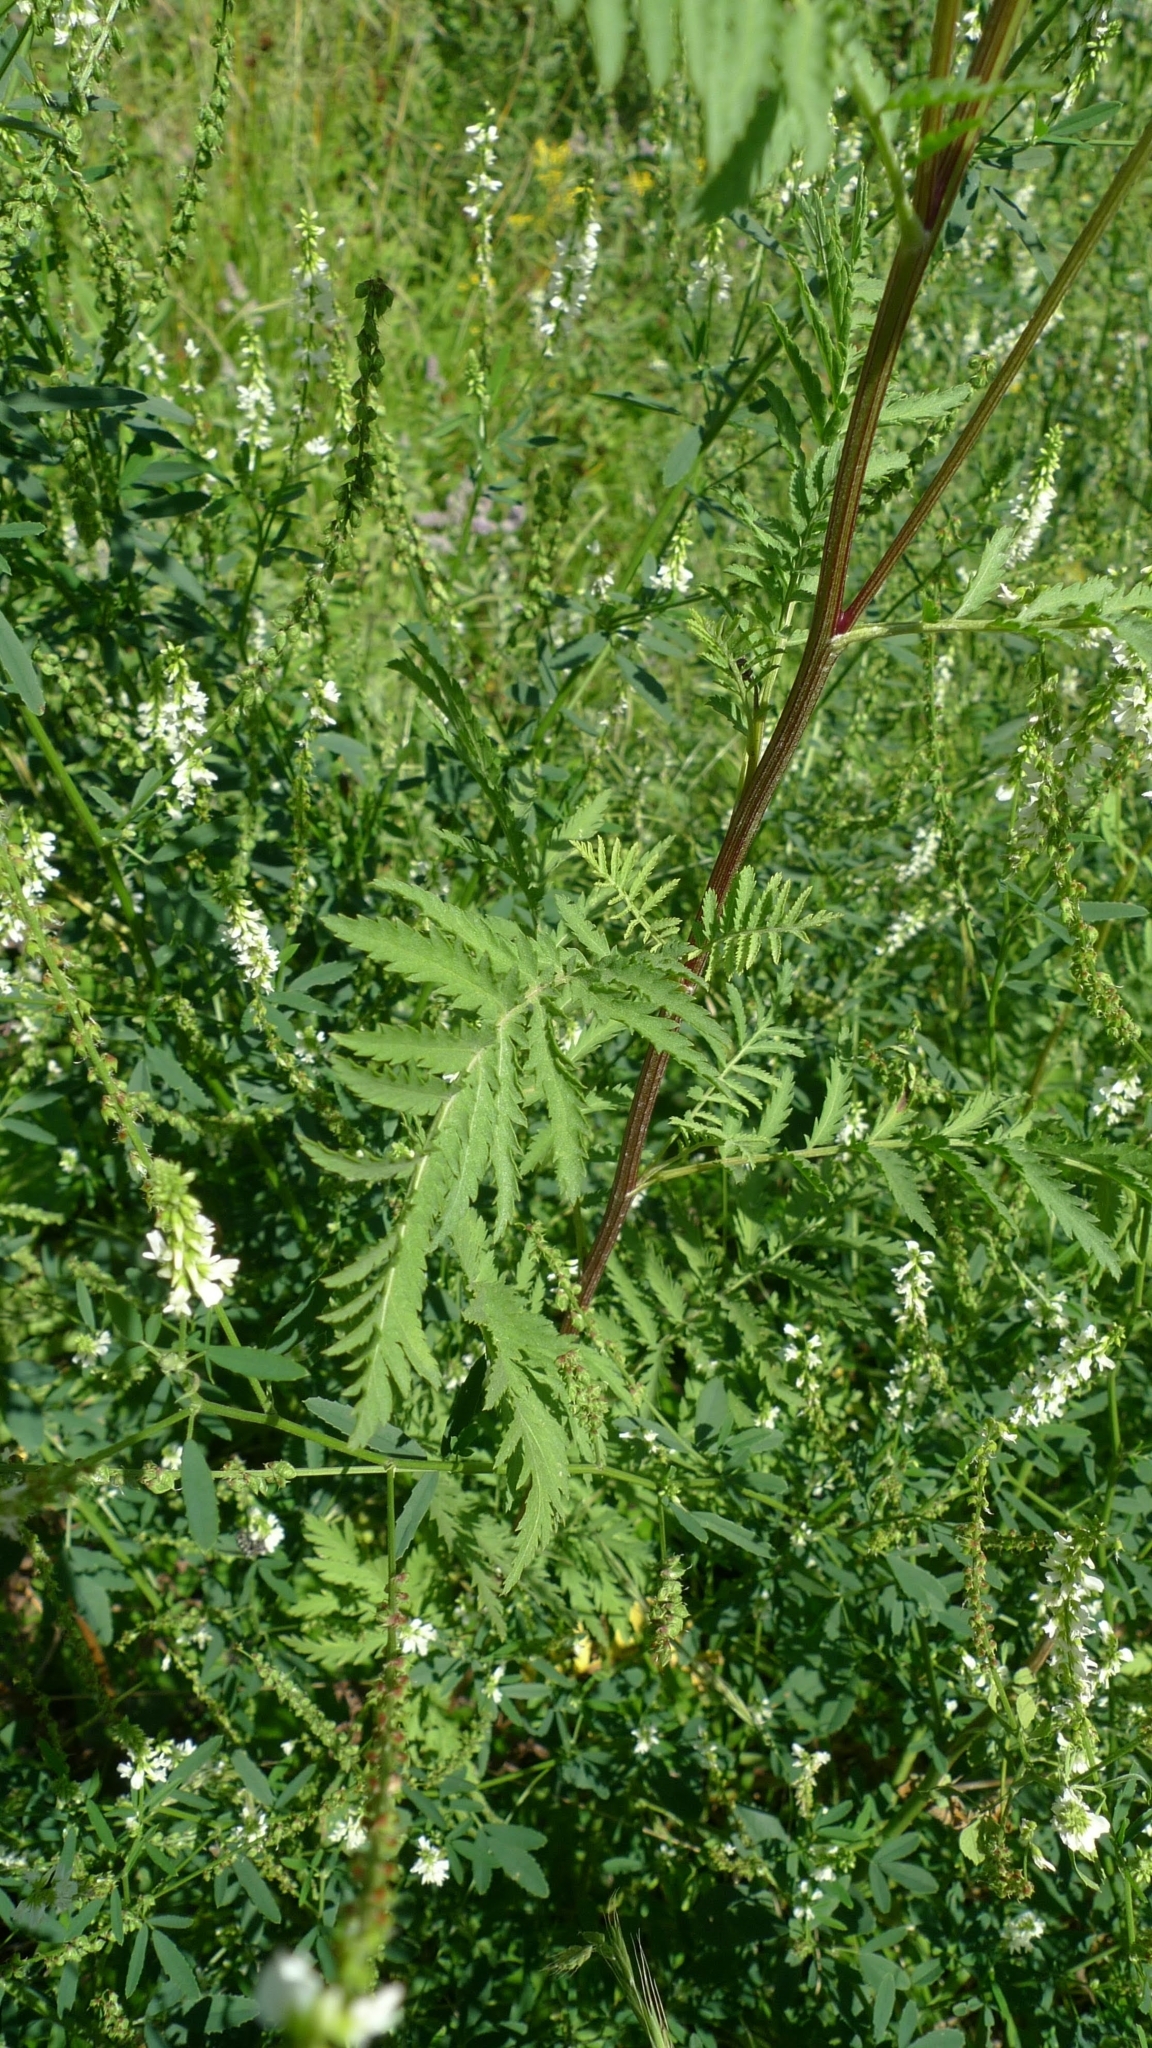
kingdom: Plantae
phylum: Tracheophyta
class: Magnoliopsida
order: Asterales
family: Asteraceae
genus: Tanacetum
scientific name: Tanacetum vulgare
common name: Common tansy
